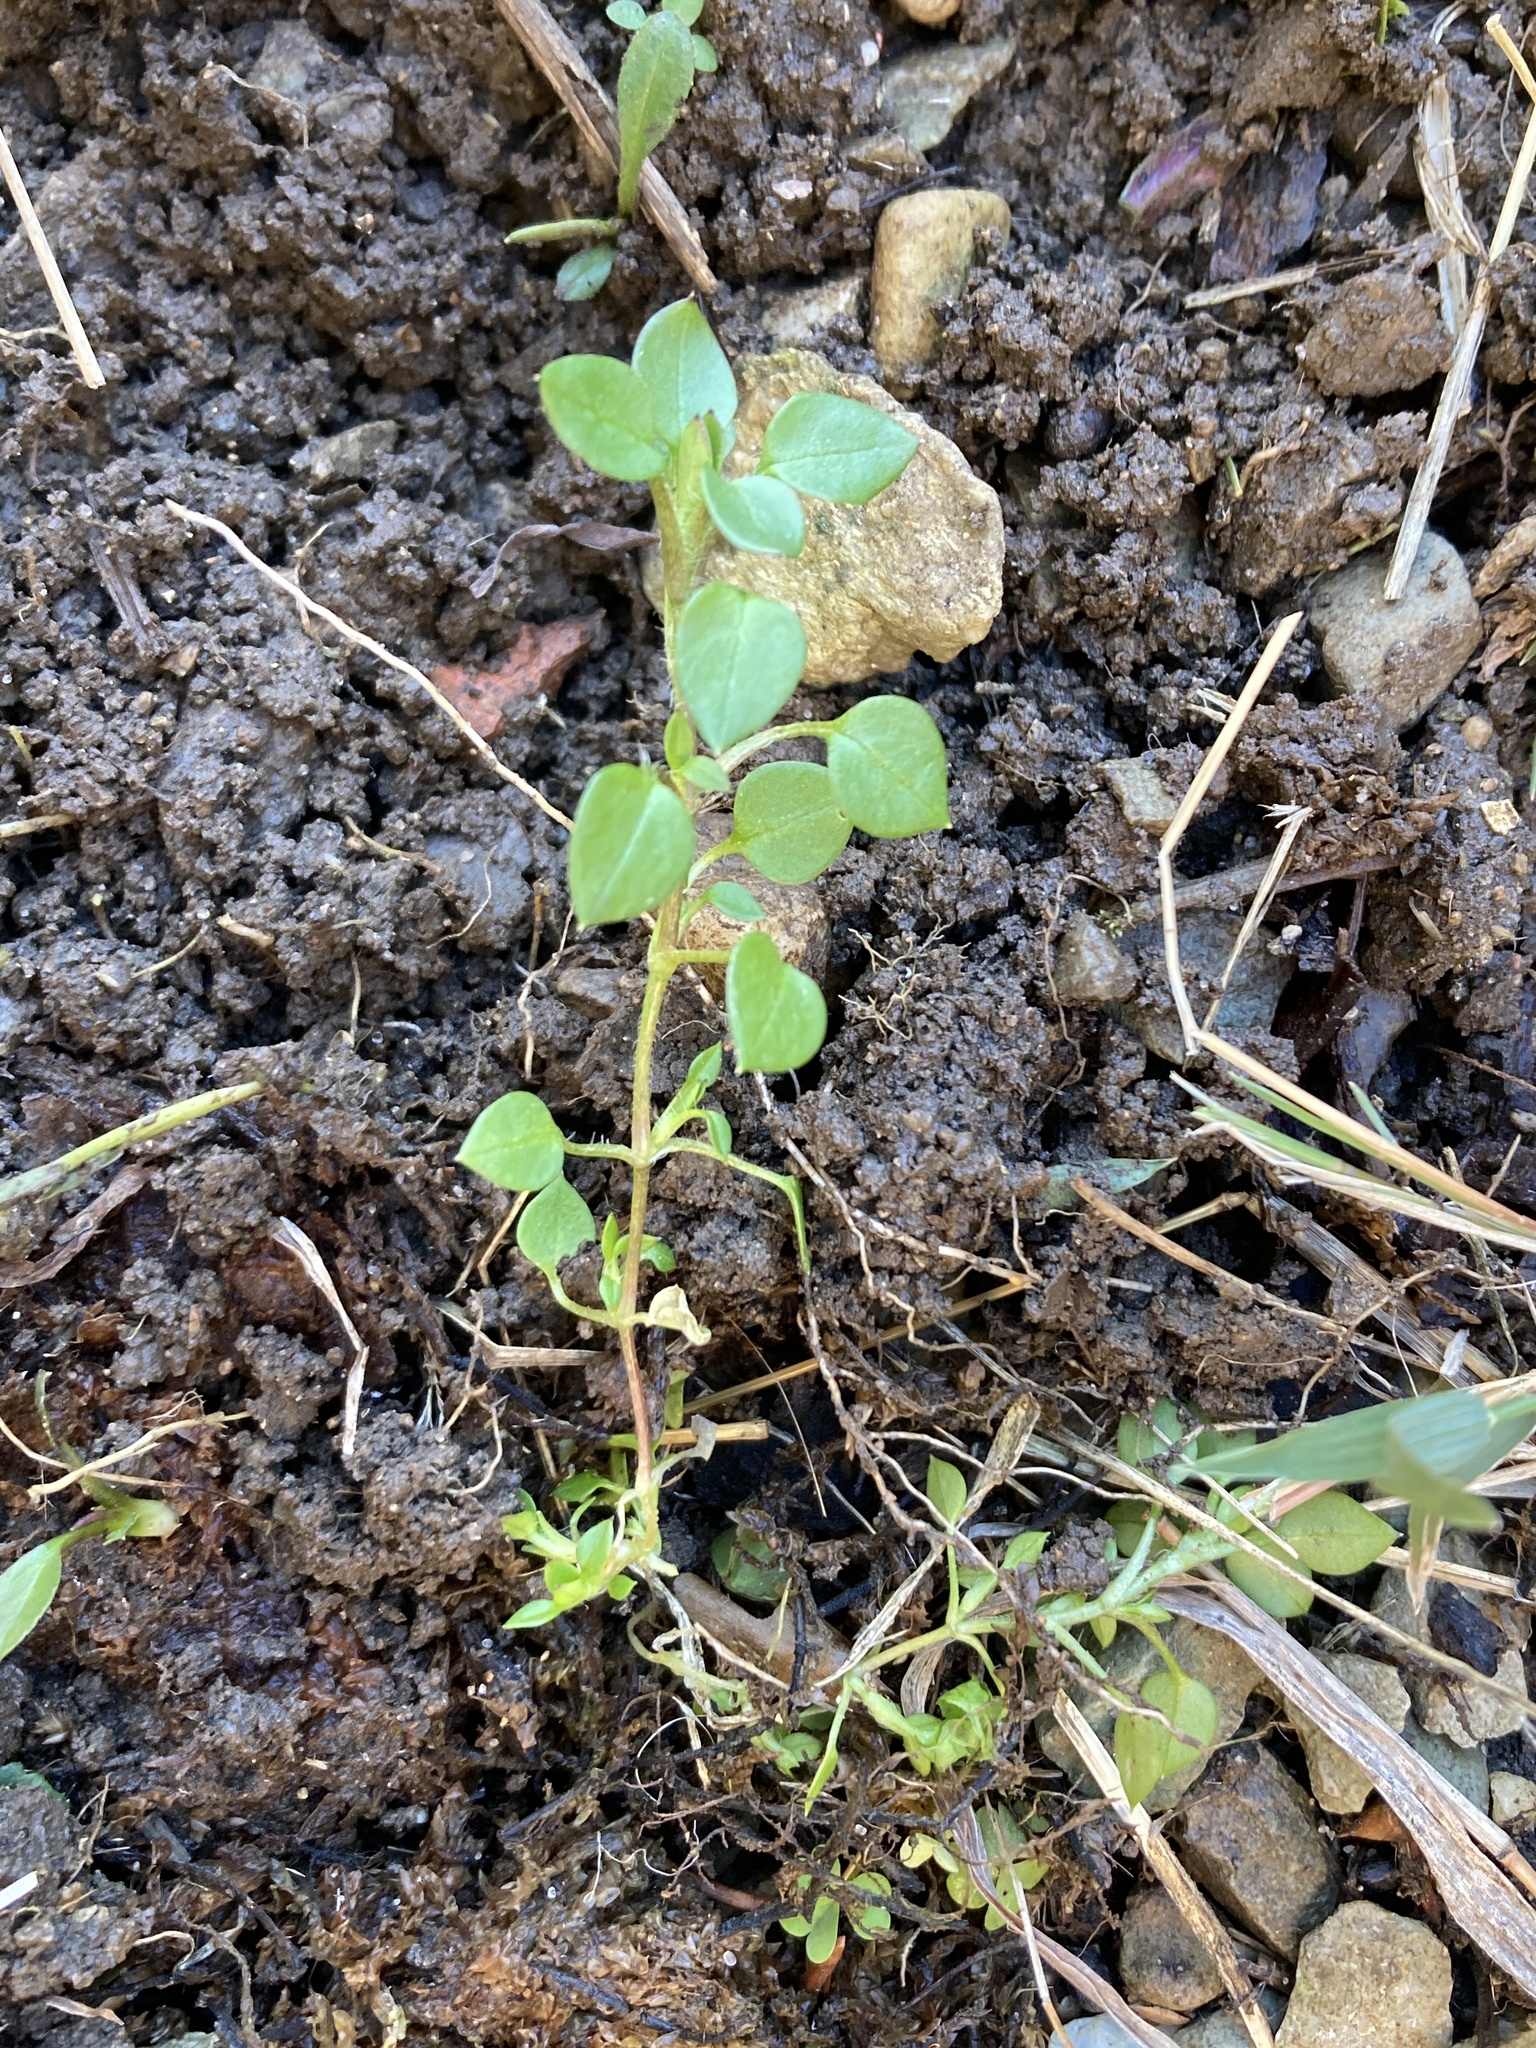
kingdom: Plantae
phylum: Tracheophyta
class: Magnoliopsida
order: Caryophyllales
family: Caryophyllaceae
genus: Stellaria
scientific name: Stellaria media
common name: Common chickweed
